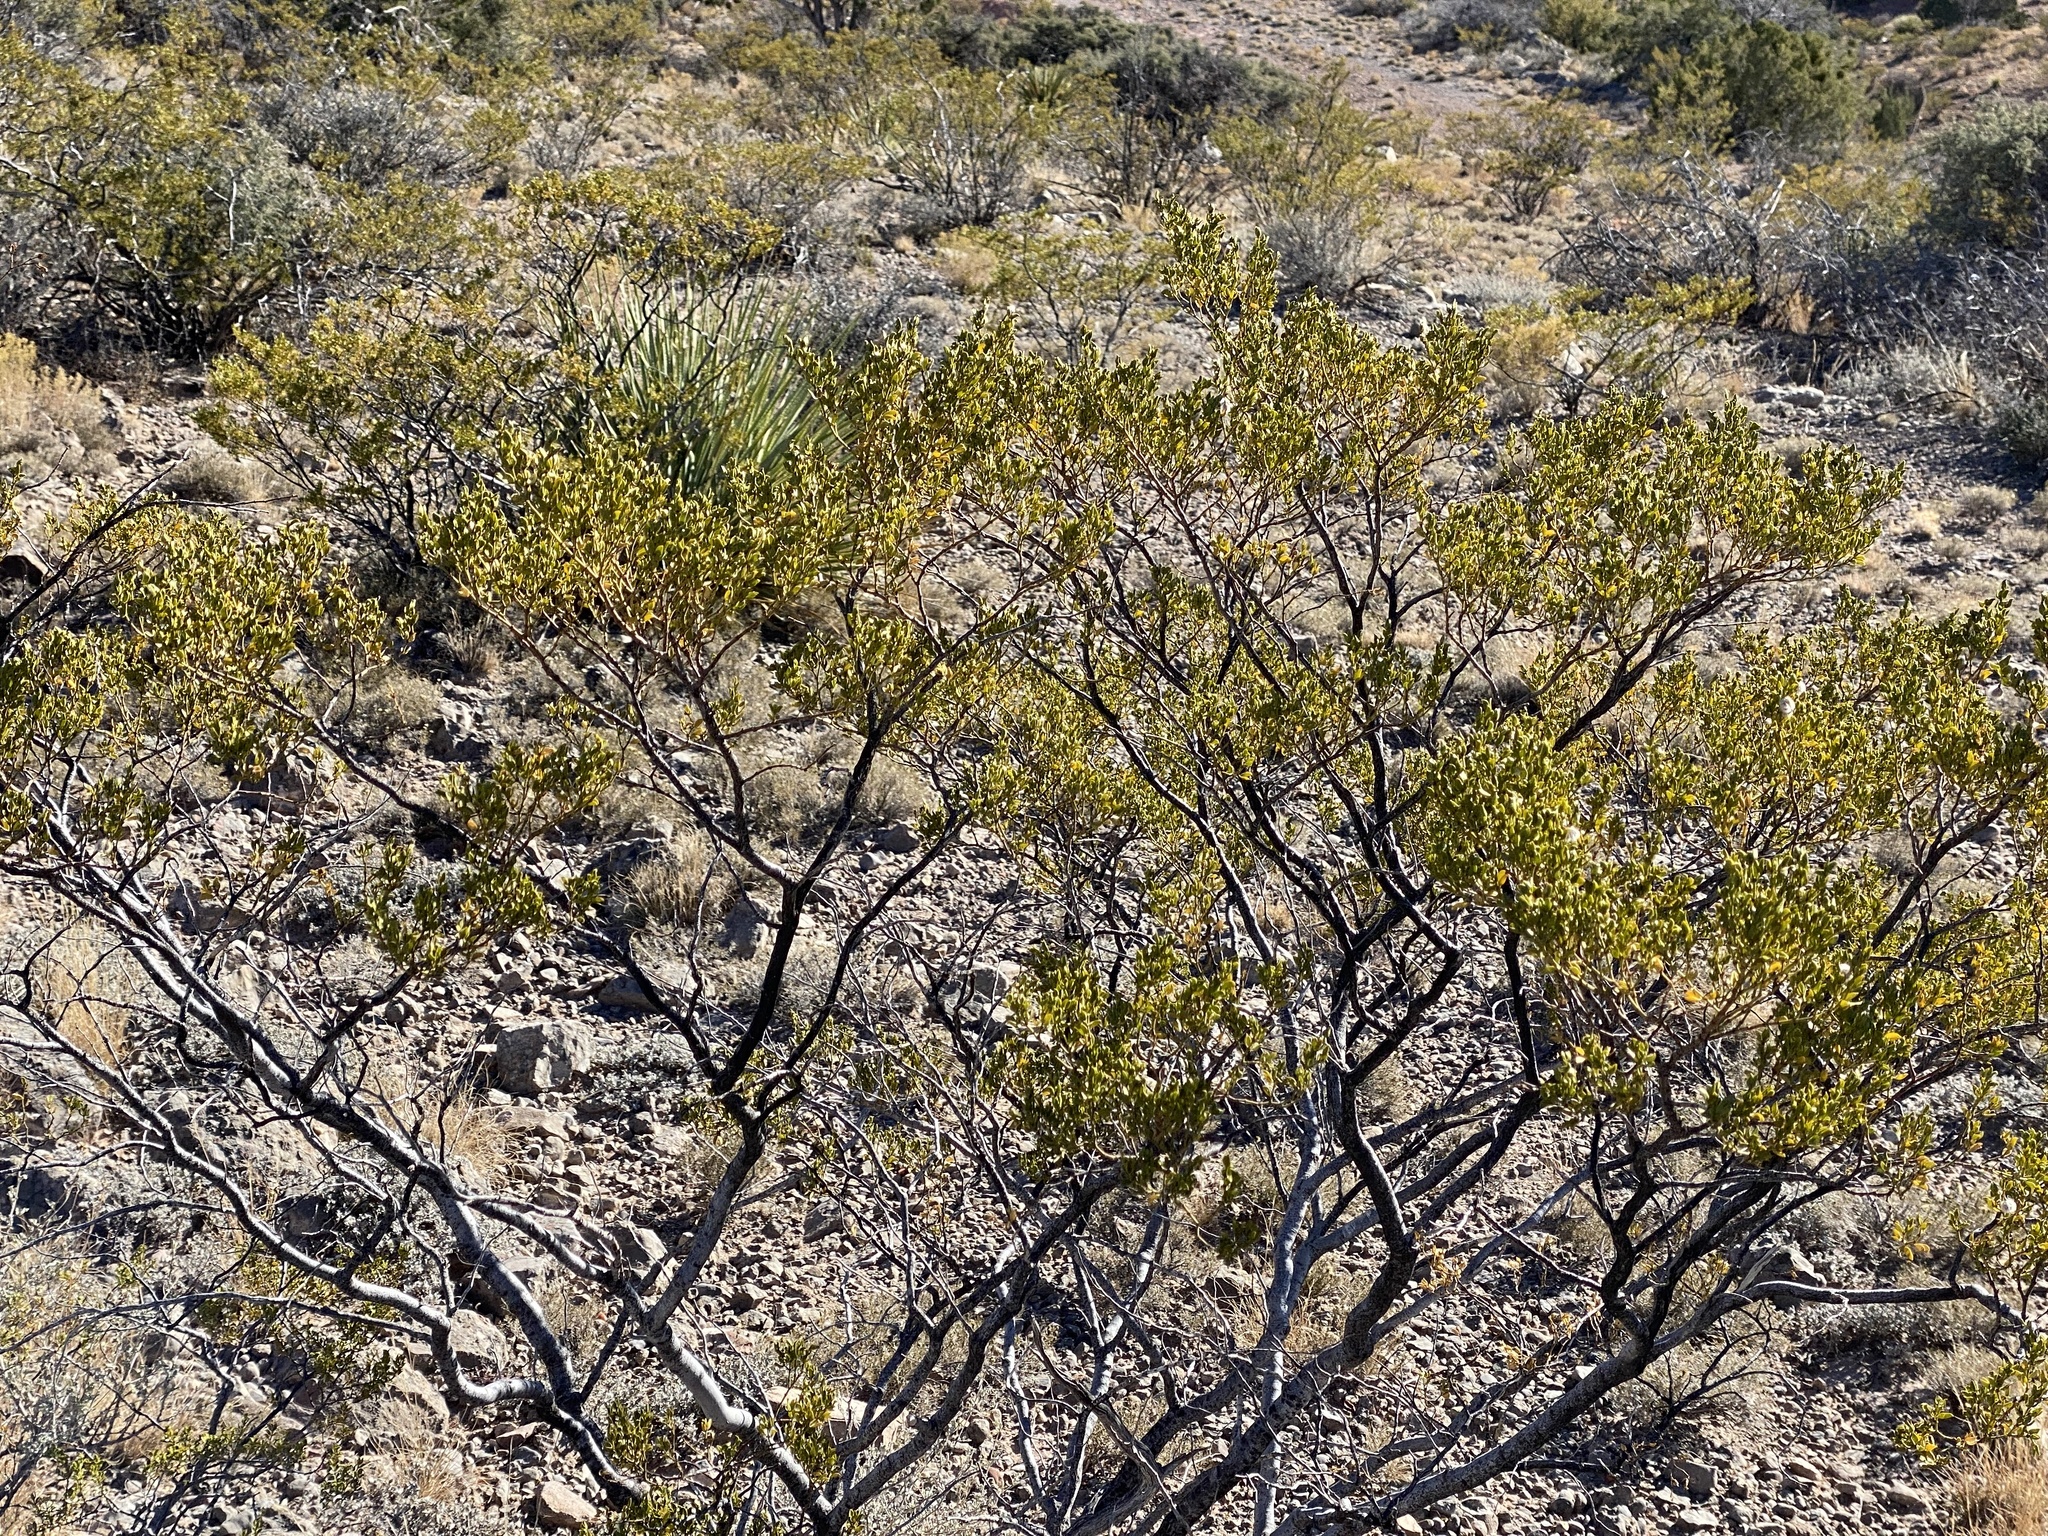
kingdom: Plantae
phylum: Tracheophyta
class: Magnoliopsida
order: Zygophyllales
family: Zygophyllaceae
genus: Larrea
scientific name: Larrea tridentata
